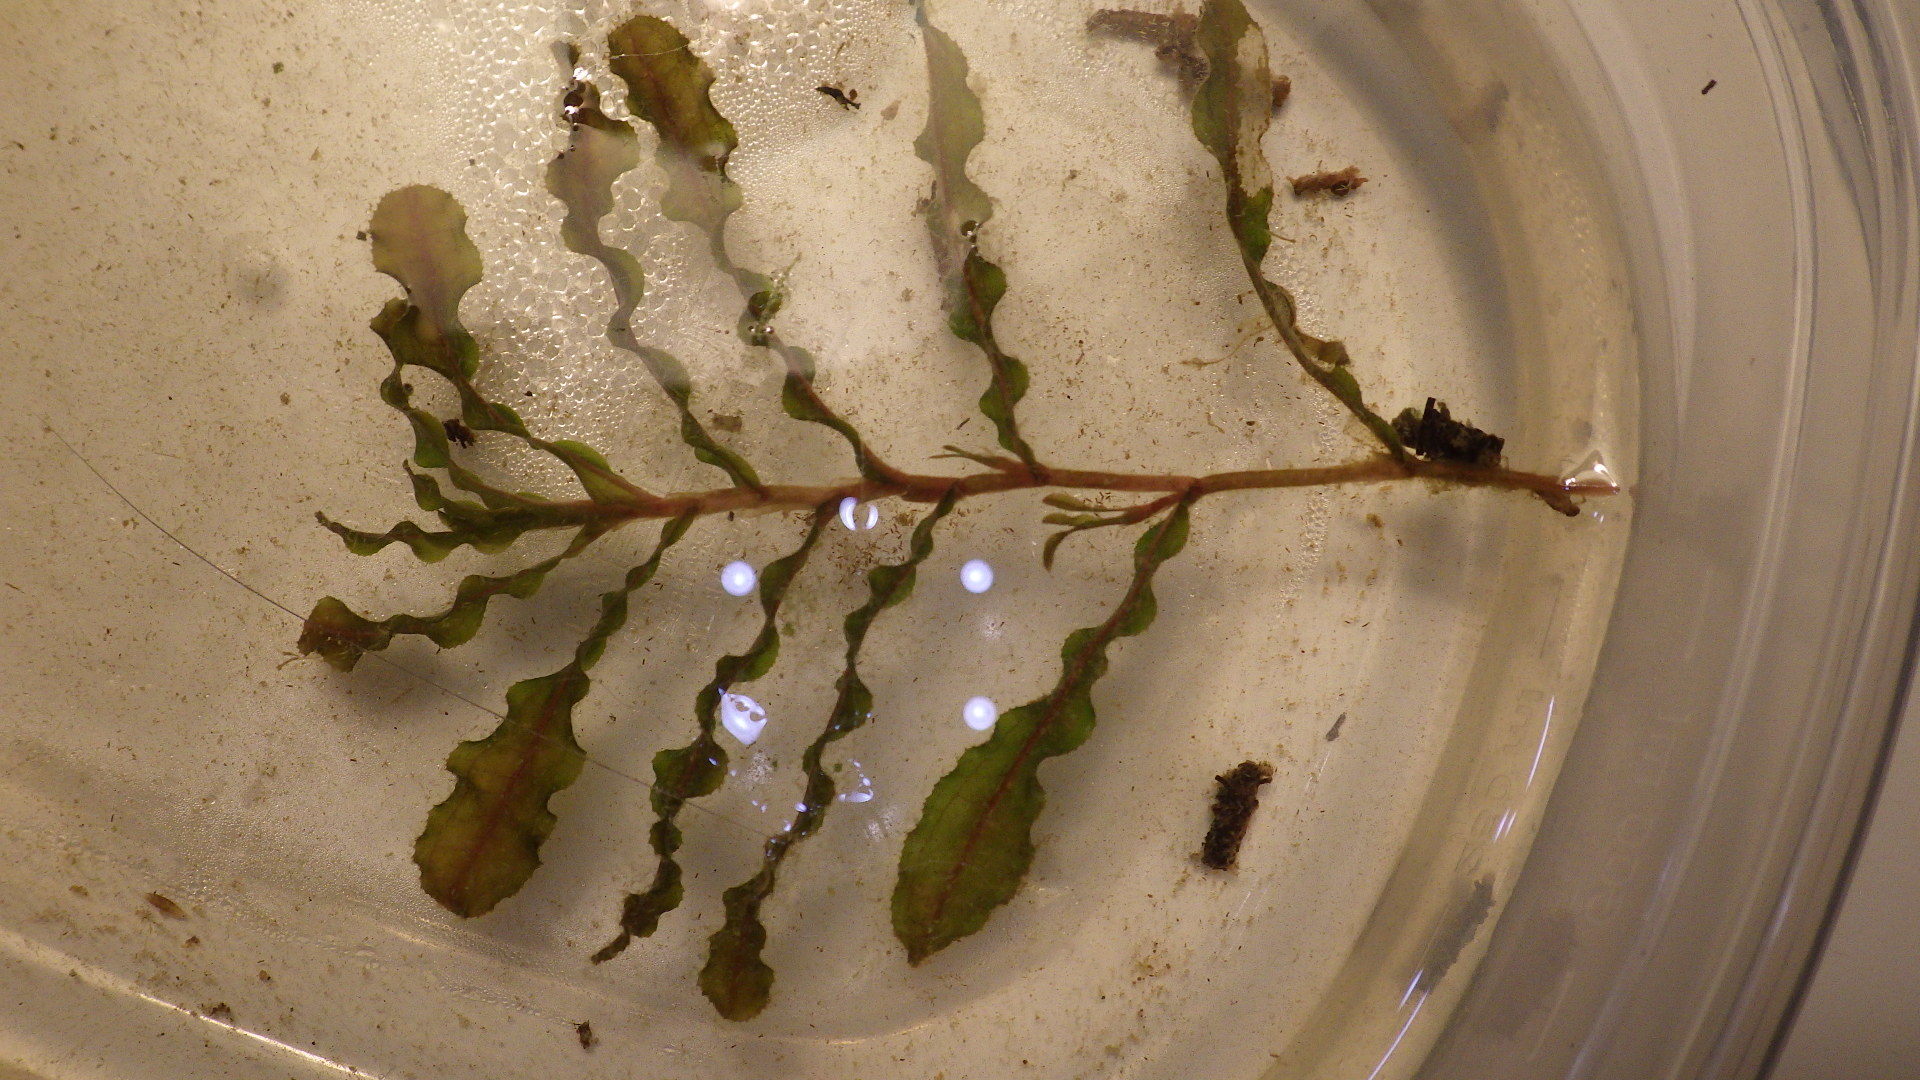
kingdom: Plantae
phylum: Tracheophyta
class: Liliopsida
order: Alismatales
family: Potamogetonaceae
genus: Potamogeton
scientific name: Potamogeton crispus
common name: Curled pondweed
